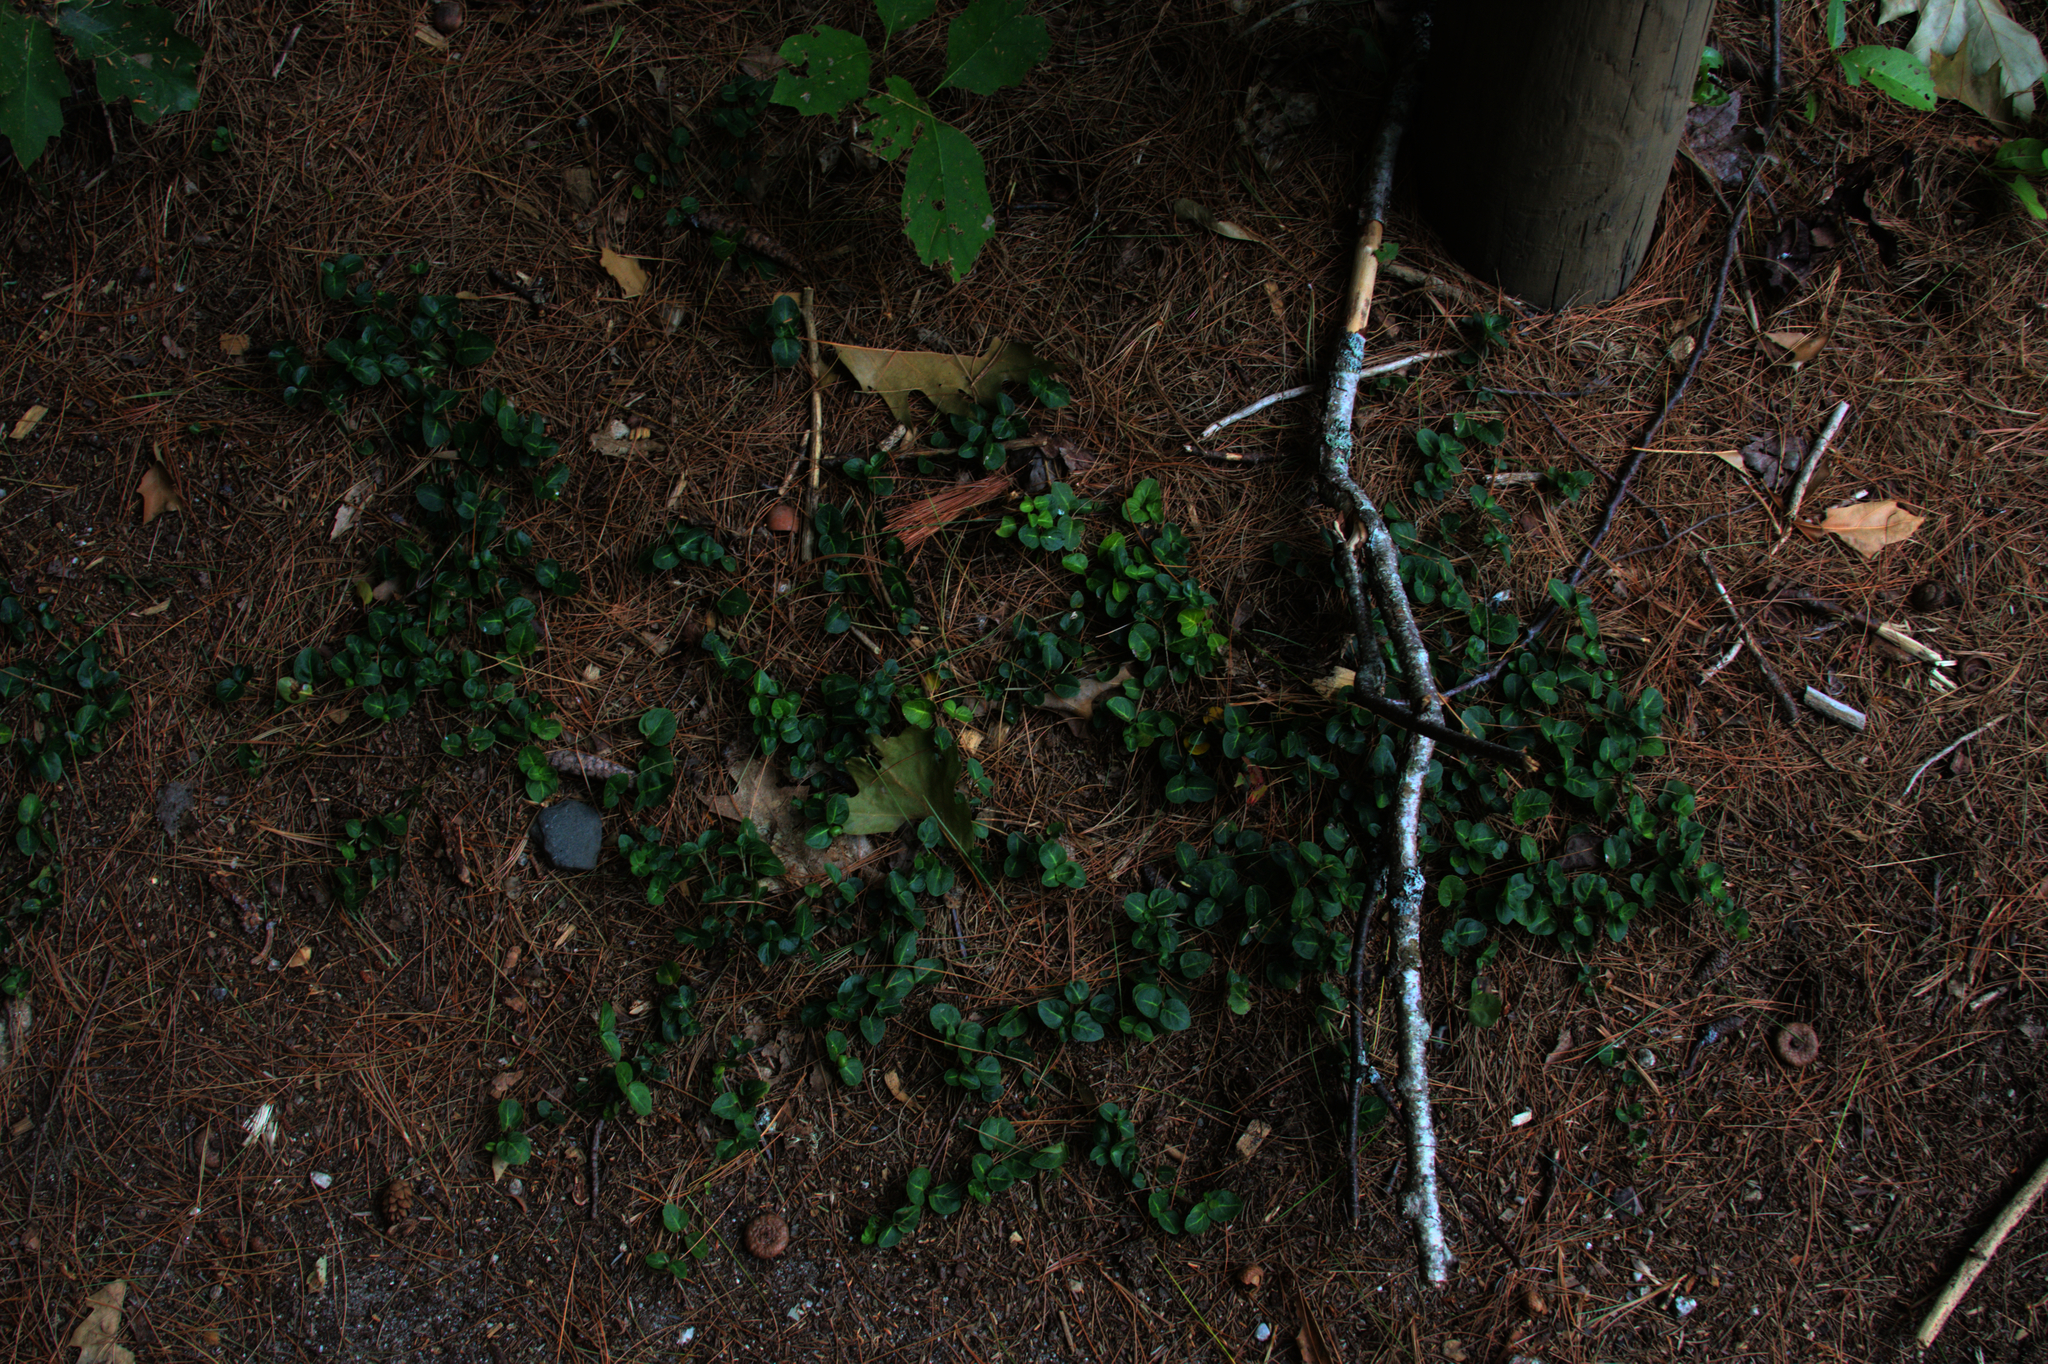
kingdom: Plantae
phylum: Tracheophyta
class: Magnoliopsida
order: Gentianales
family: Rubiaceae
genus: Mitchella
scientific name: Mitchella repens
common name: Partridge-berry
